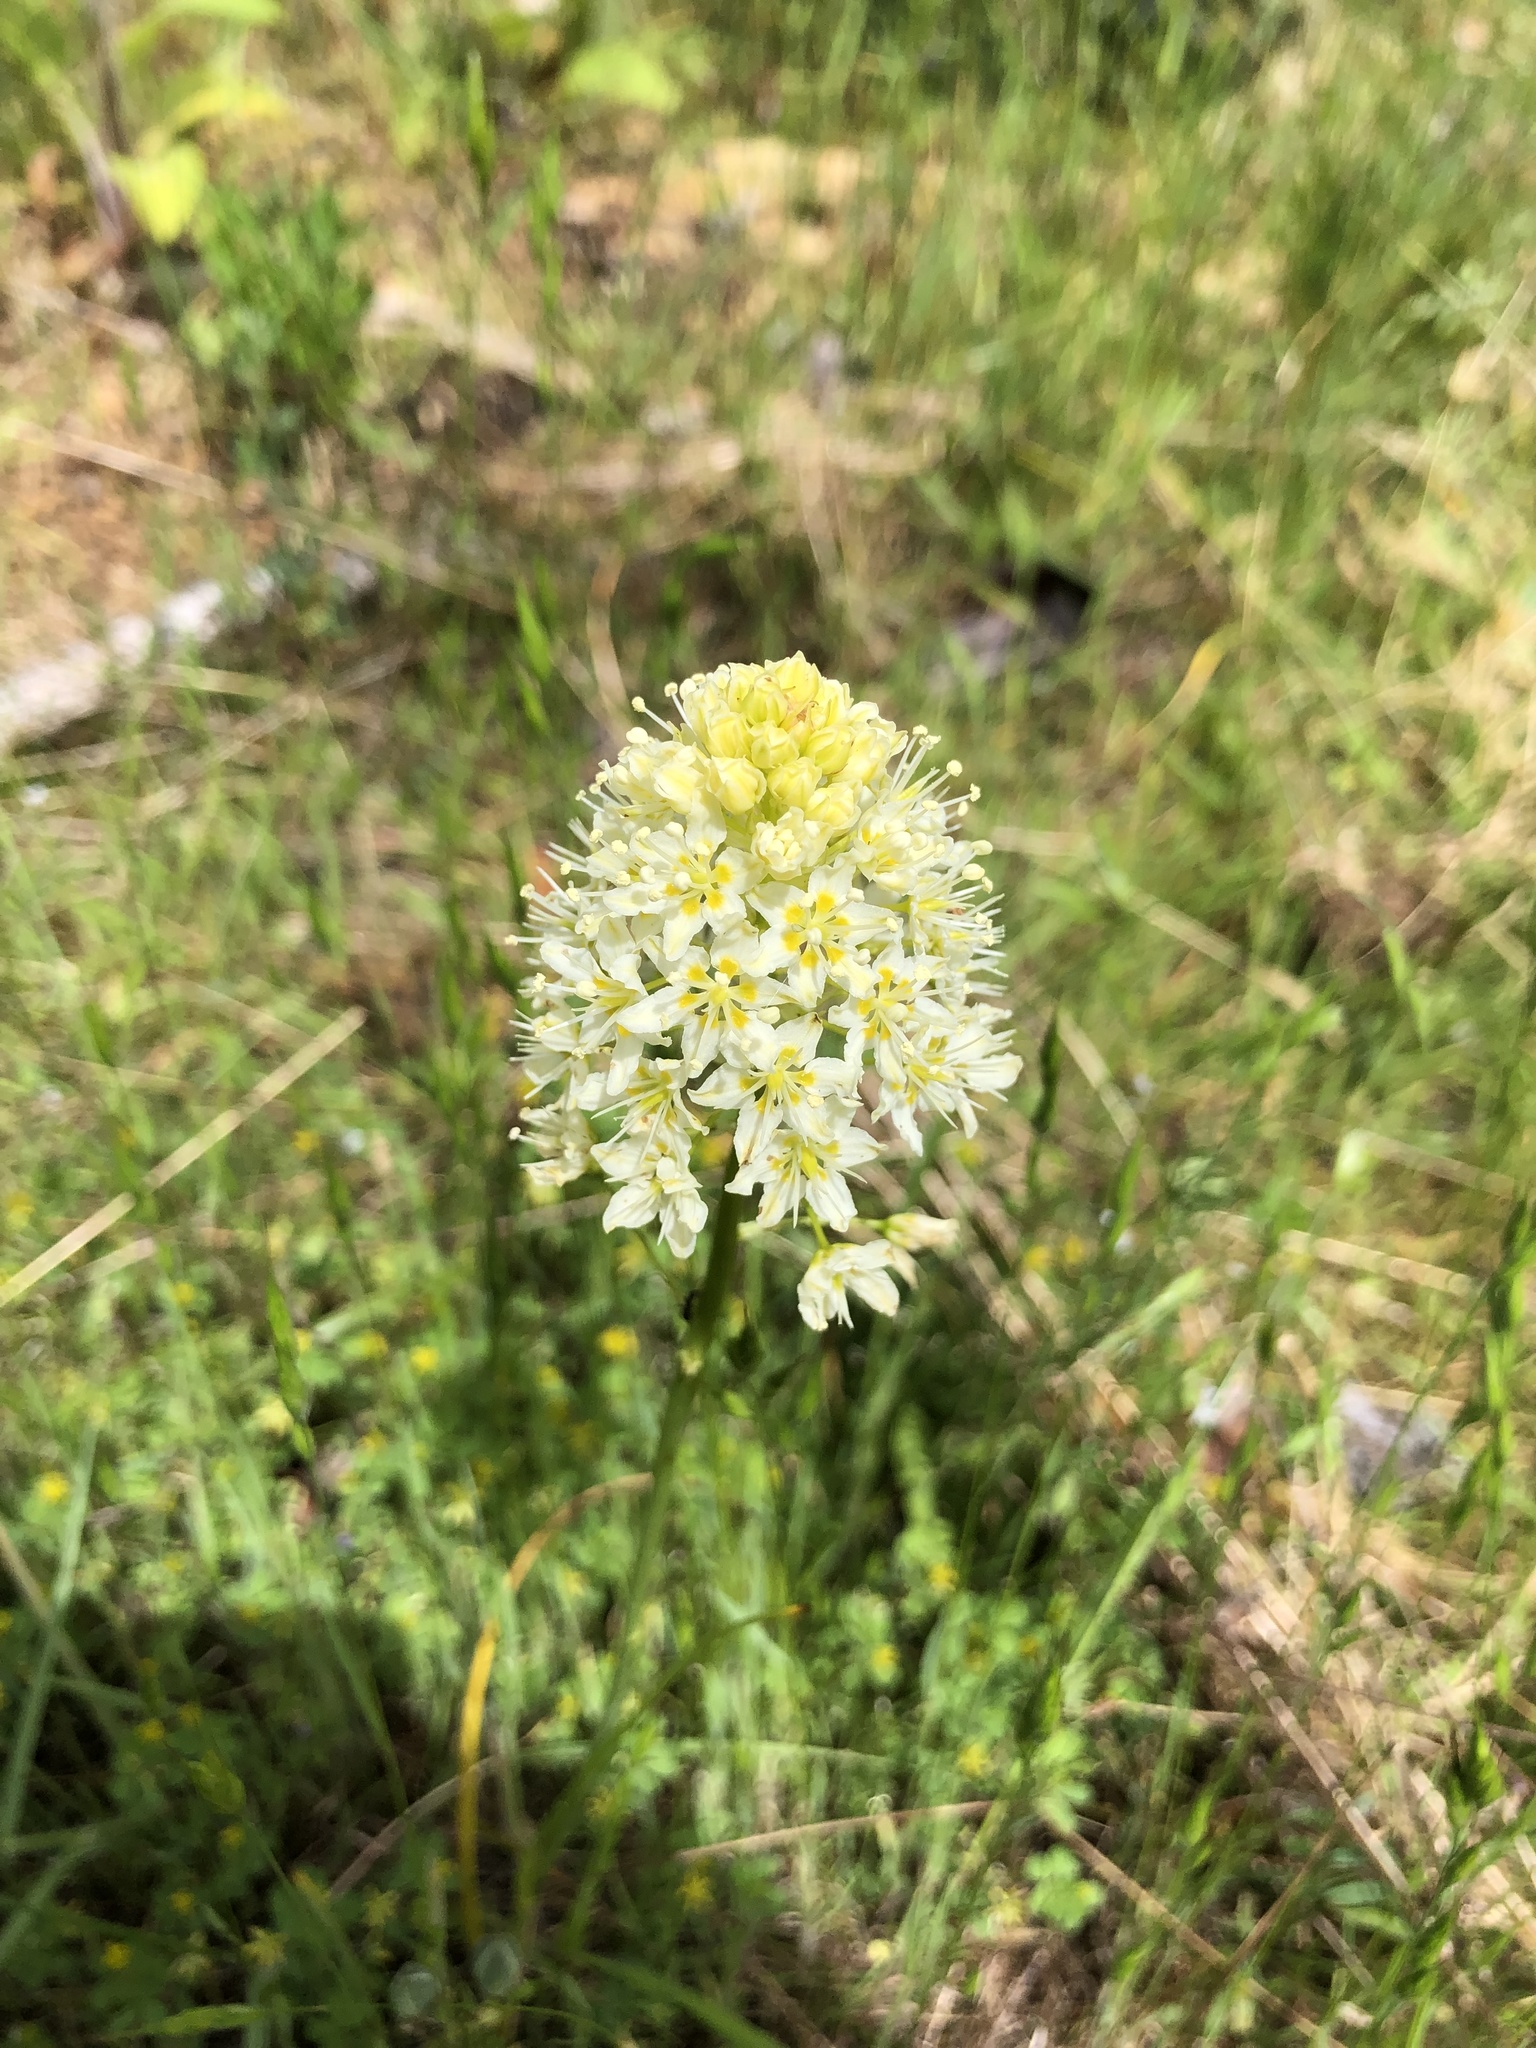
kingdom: Plantae
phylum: Tracheophyta
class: Liliopsida
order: Liliales
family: Melanthiaceae
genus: Toxicoscordion
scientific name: Toxicoscordion venenosum
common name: Meadow death camas
